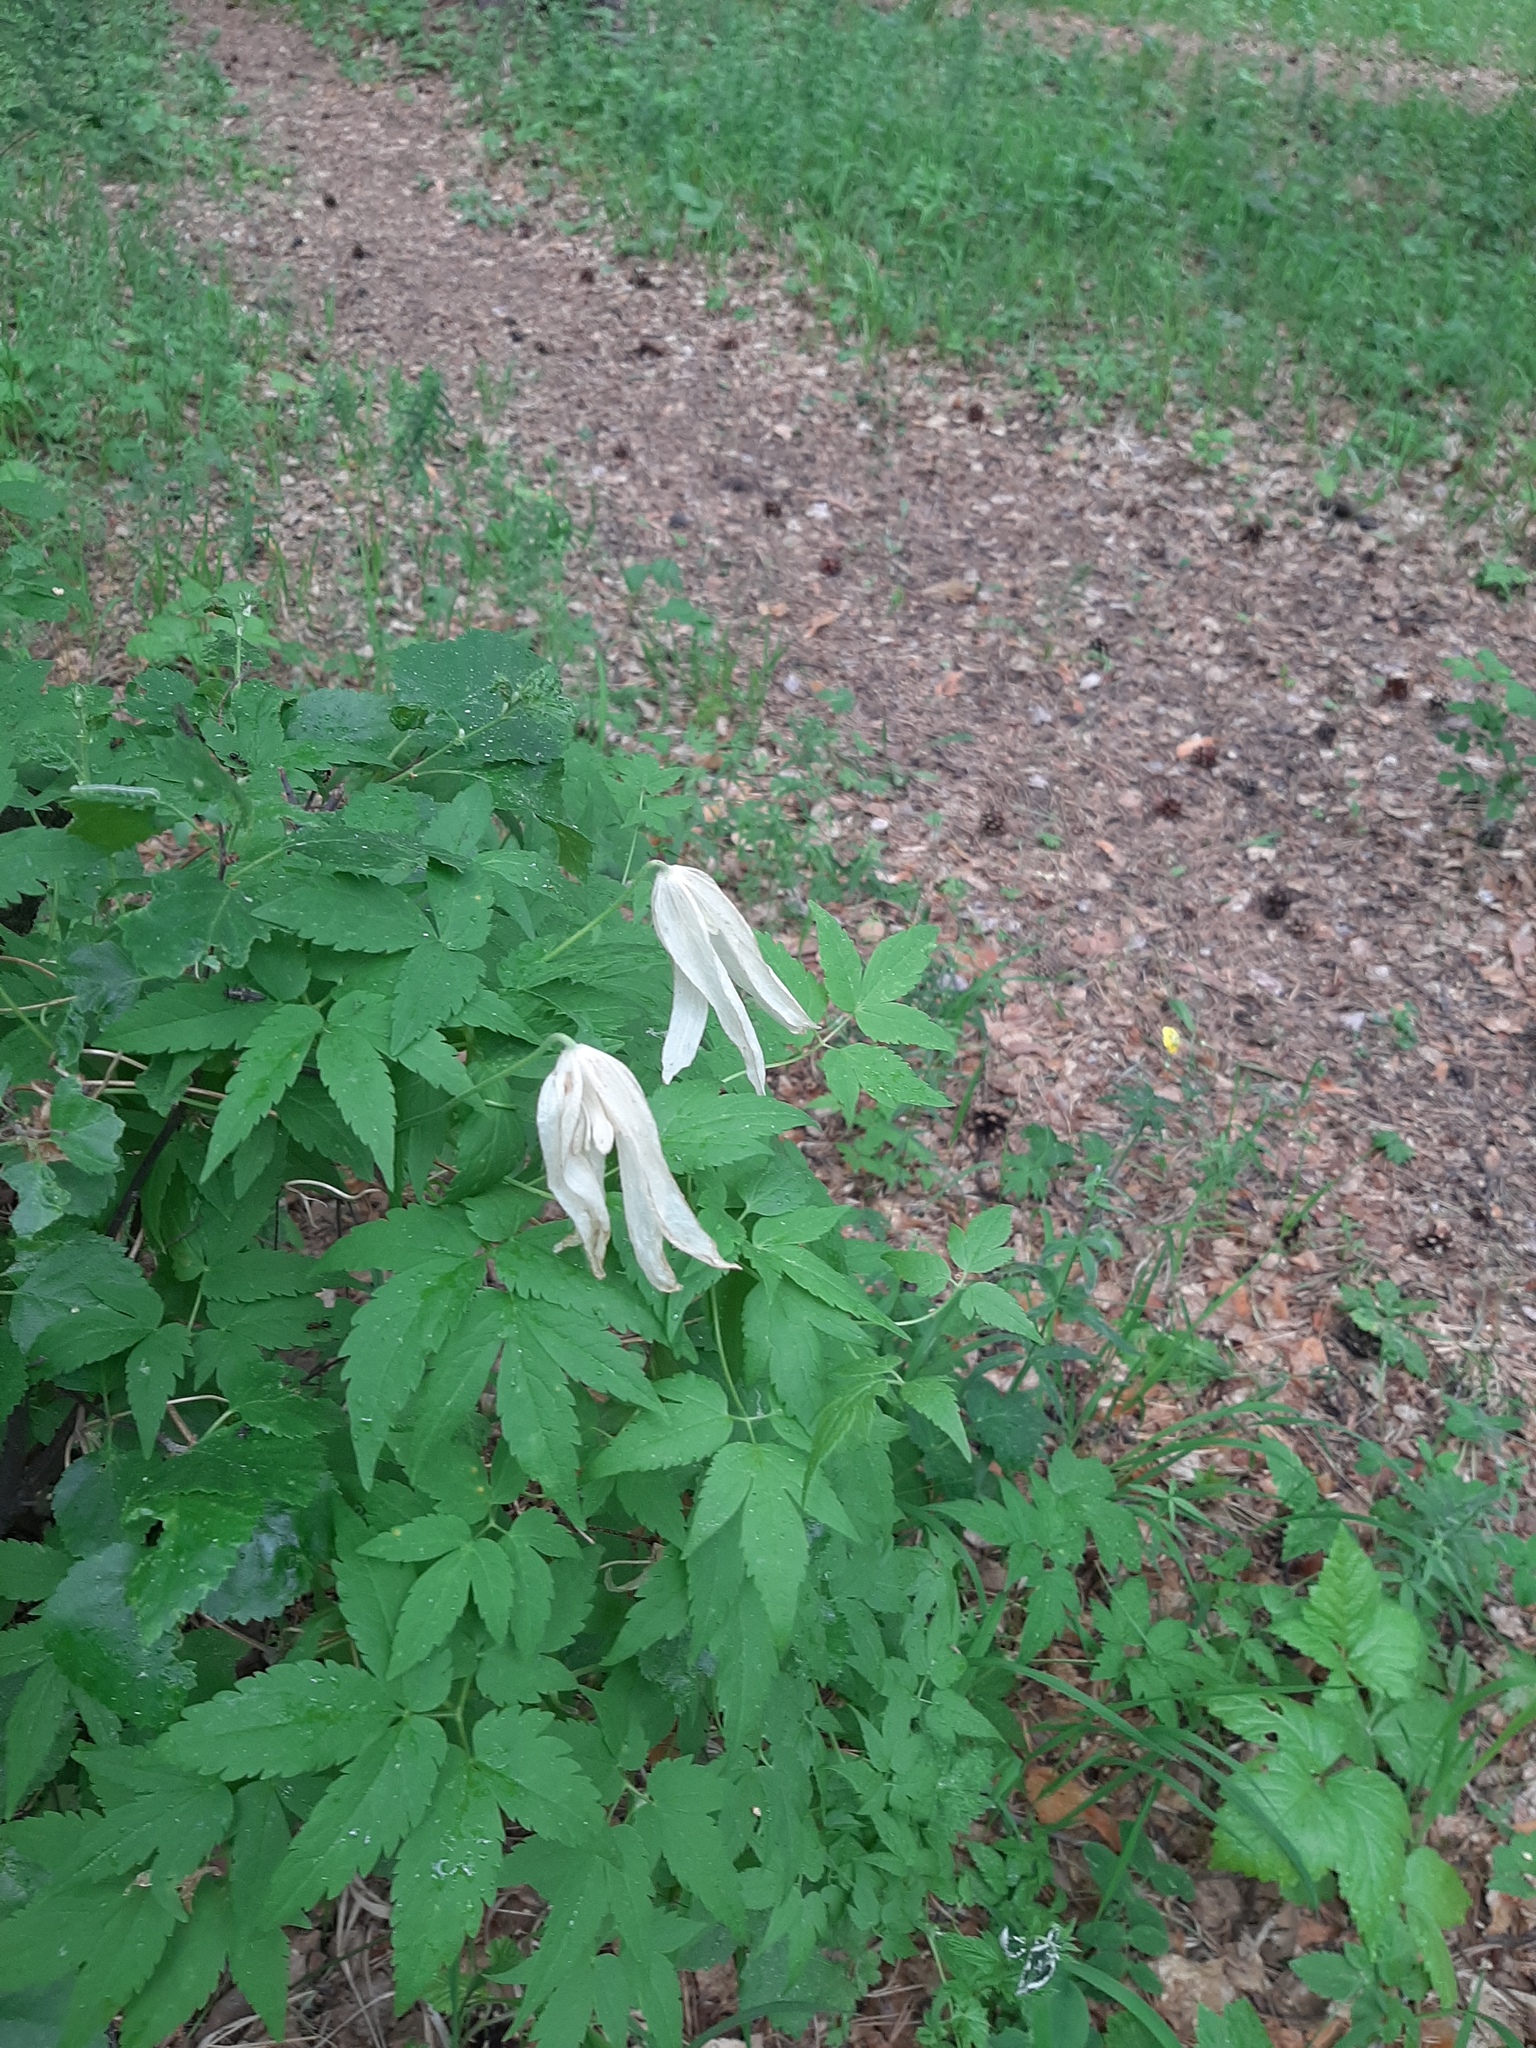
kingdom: Plantae
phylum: Tracheophyta
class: Magnoliopsida
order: Ranunculales
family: Ranunculaceae
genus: Clematis
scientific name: Clematis sibirica
